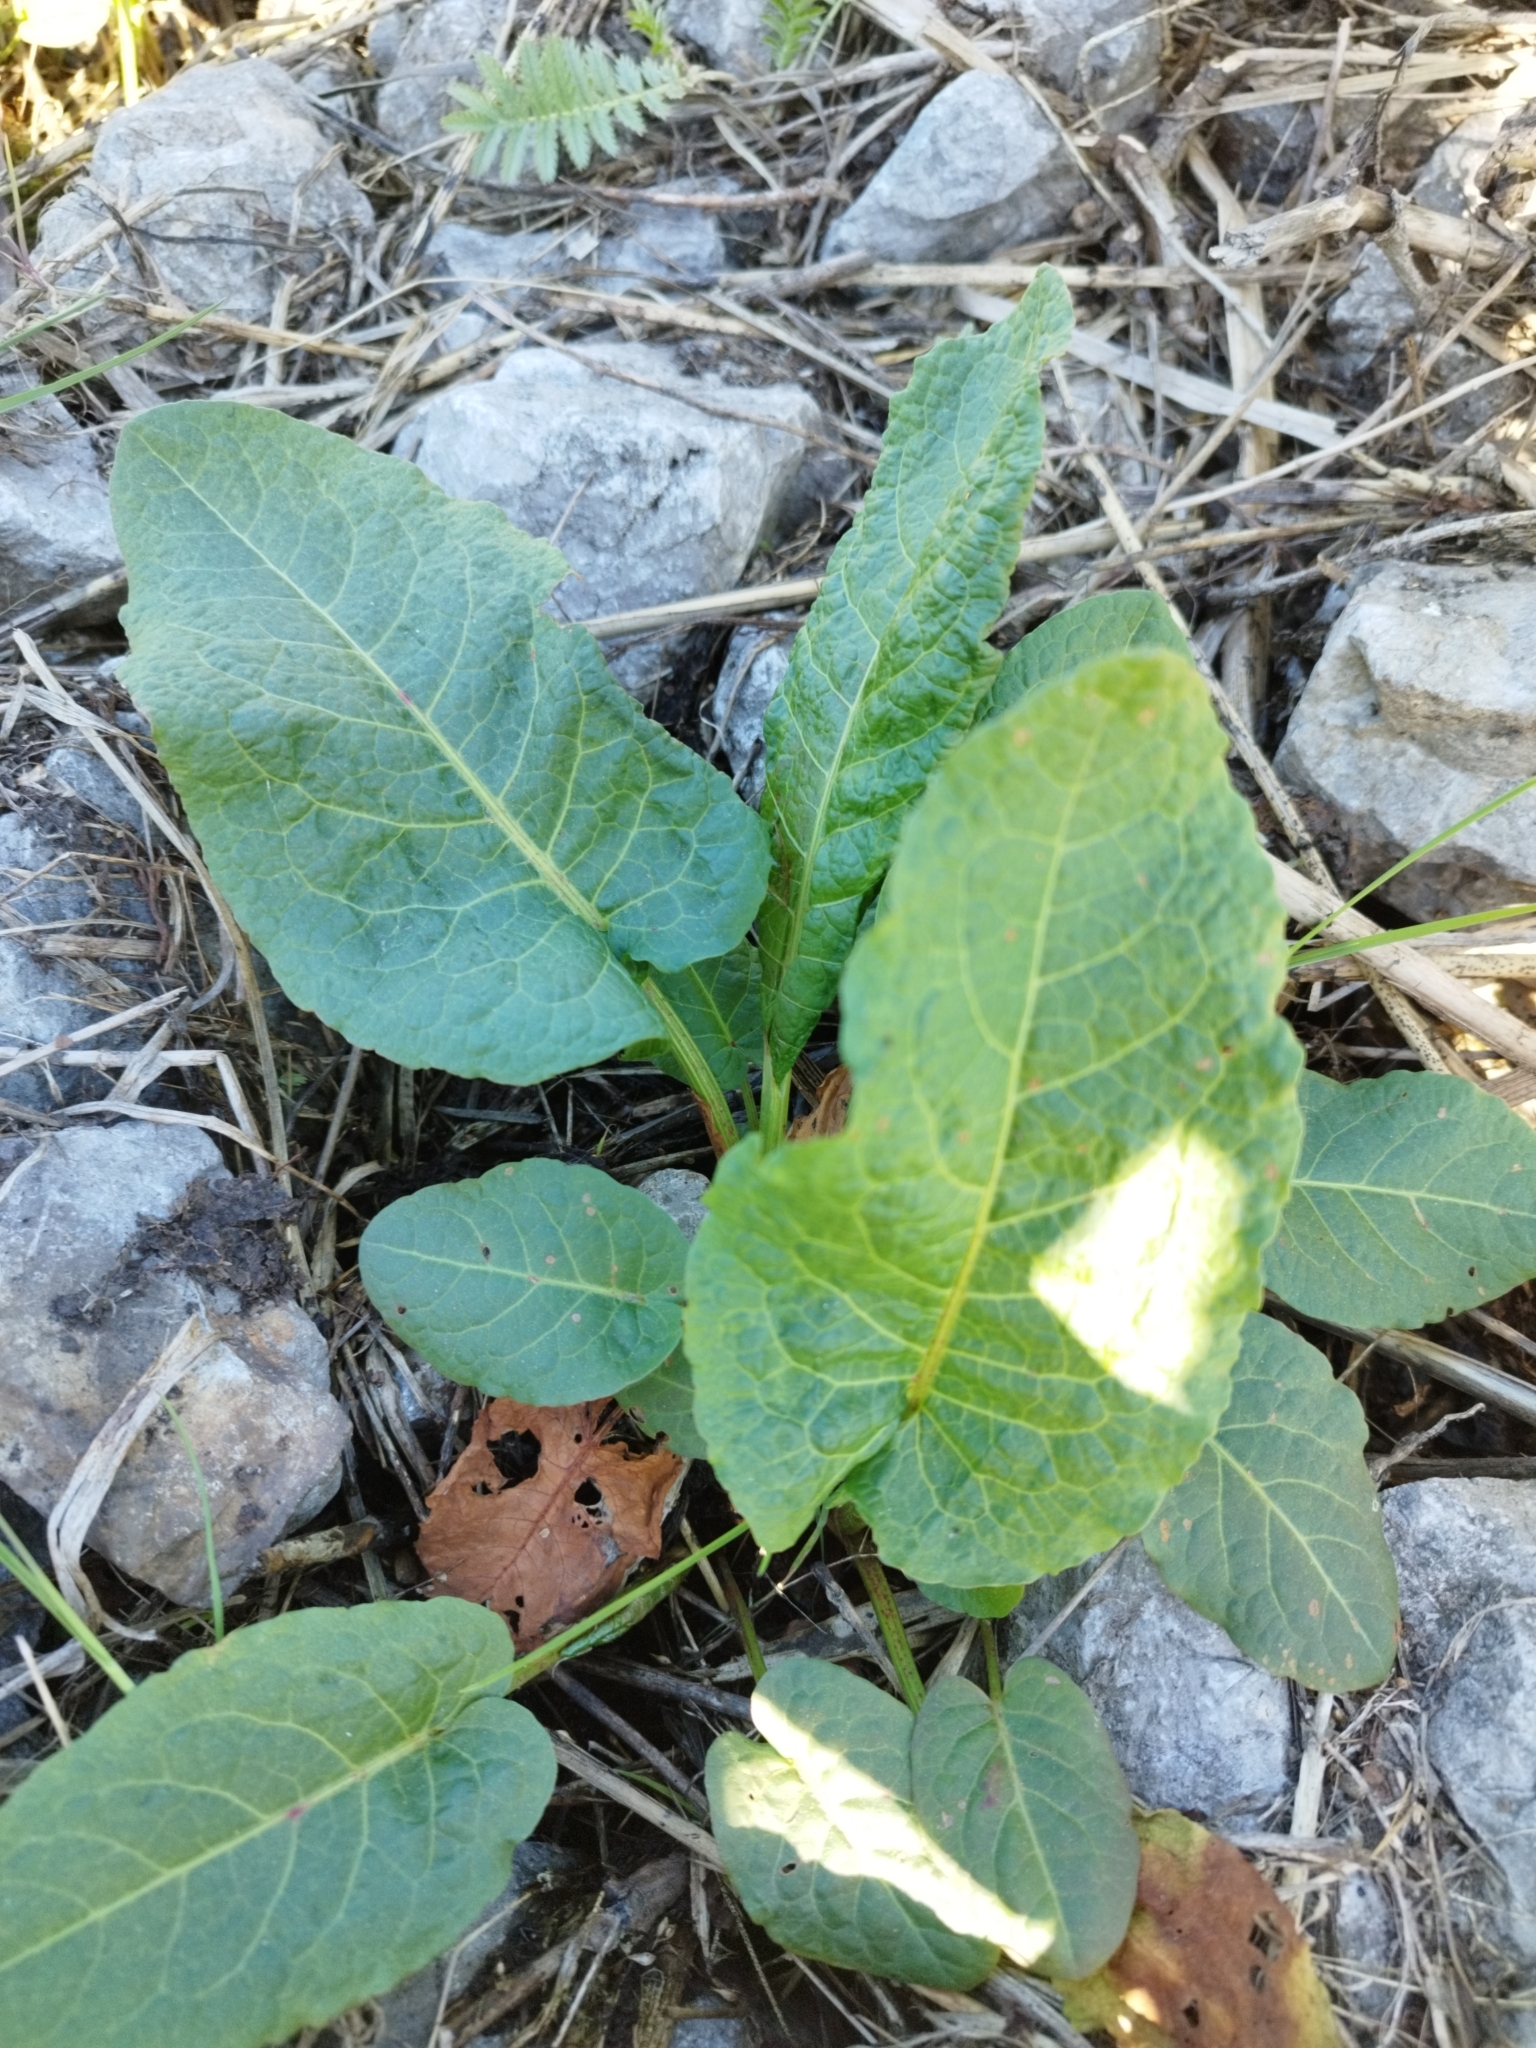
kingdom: Plantae
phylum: Tracheophyta
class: Magnoliopsida
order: Caryophyllales
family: Polygonaceae
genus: Rumex
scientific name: Rumex obtusifolius
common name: Bitter dock
